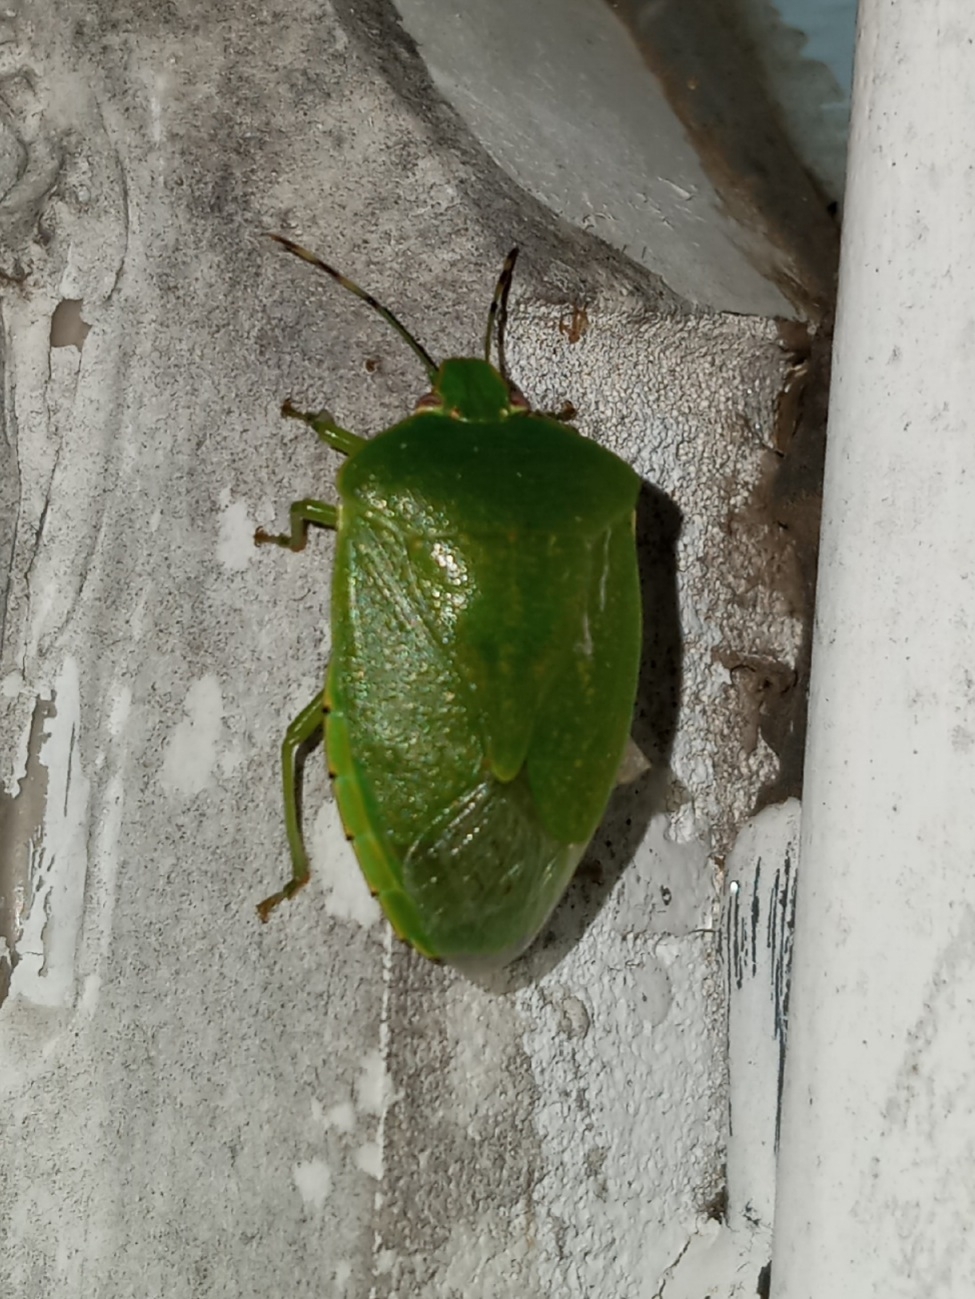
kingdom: Animalia
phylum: Arthropoda
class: Insecta
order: Hemiptera
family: Pentatomidae
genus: Chinavia
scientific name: Chinavia hilaris
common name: Green stink bug
